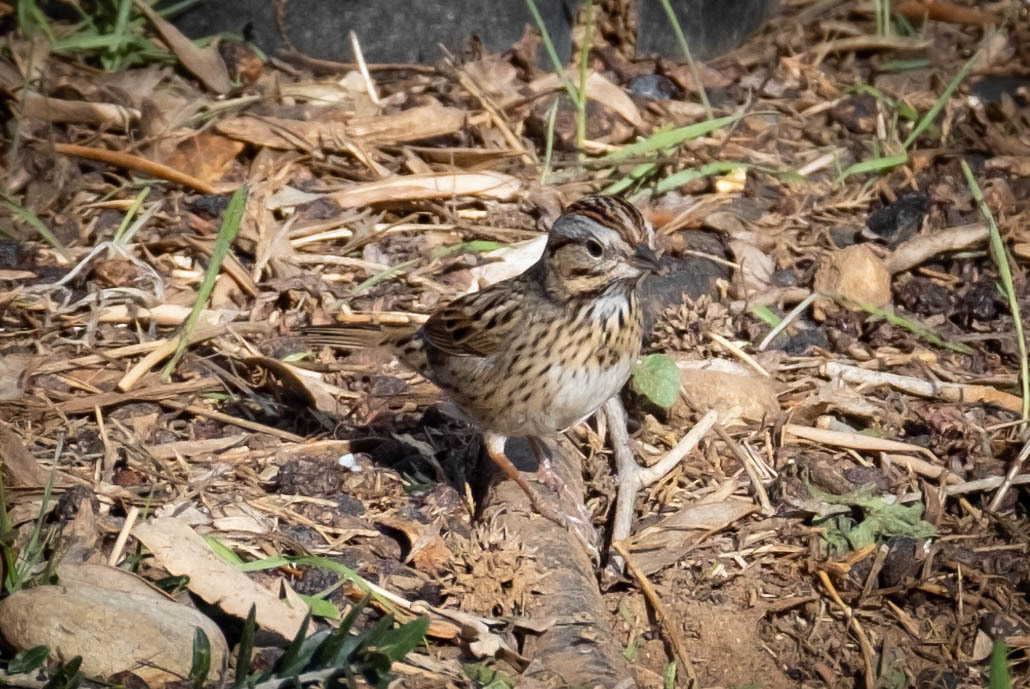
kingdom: Animalia
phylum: Chordata
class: Aves
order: Passeriformes
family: Passerellidae
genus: Melospiza
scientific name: Melospiza lincolnii
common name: Lincoln's sparrow
